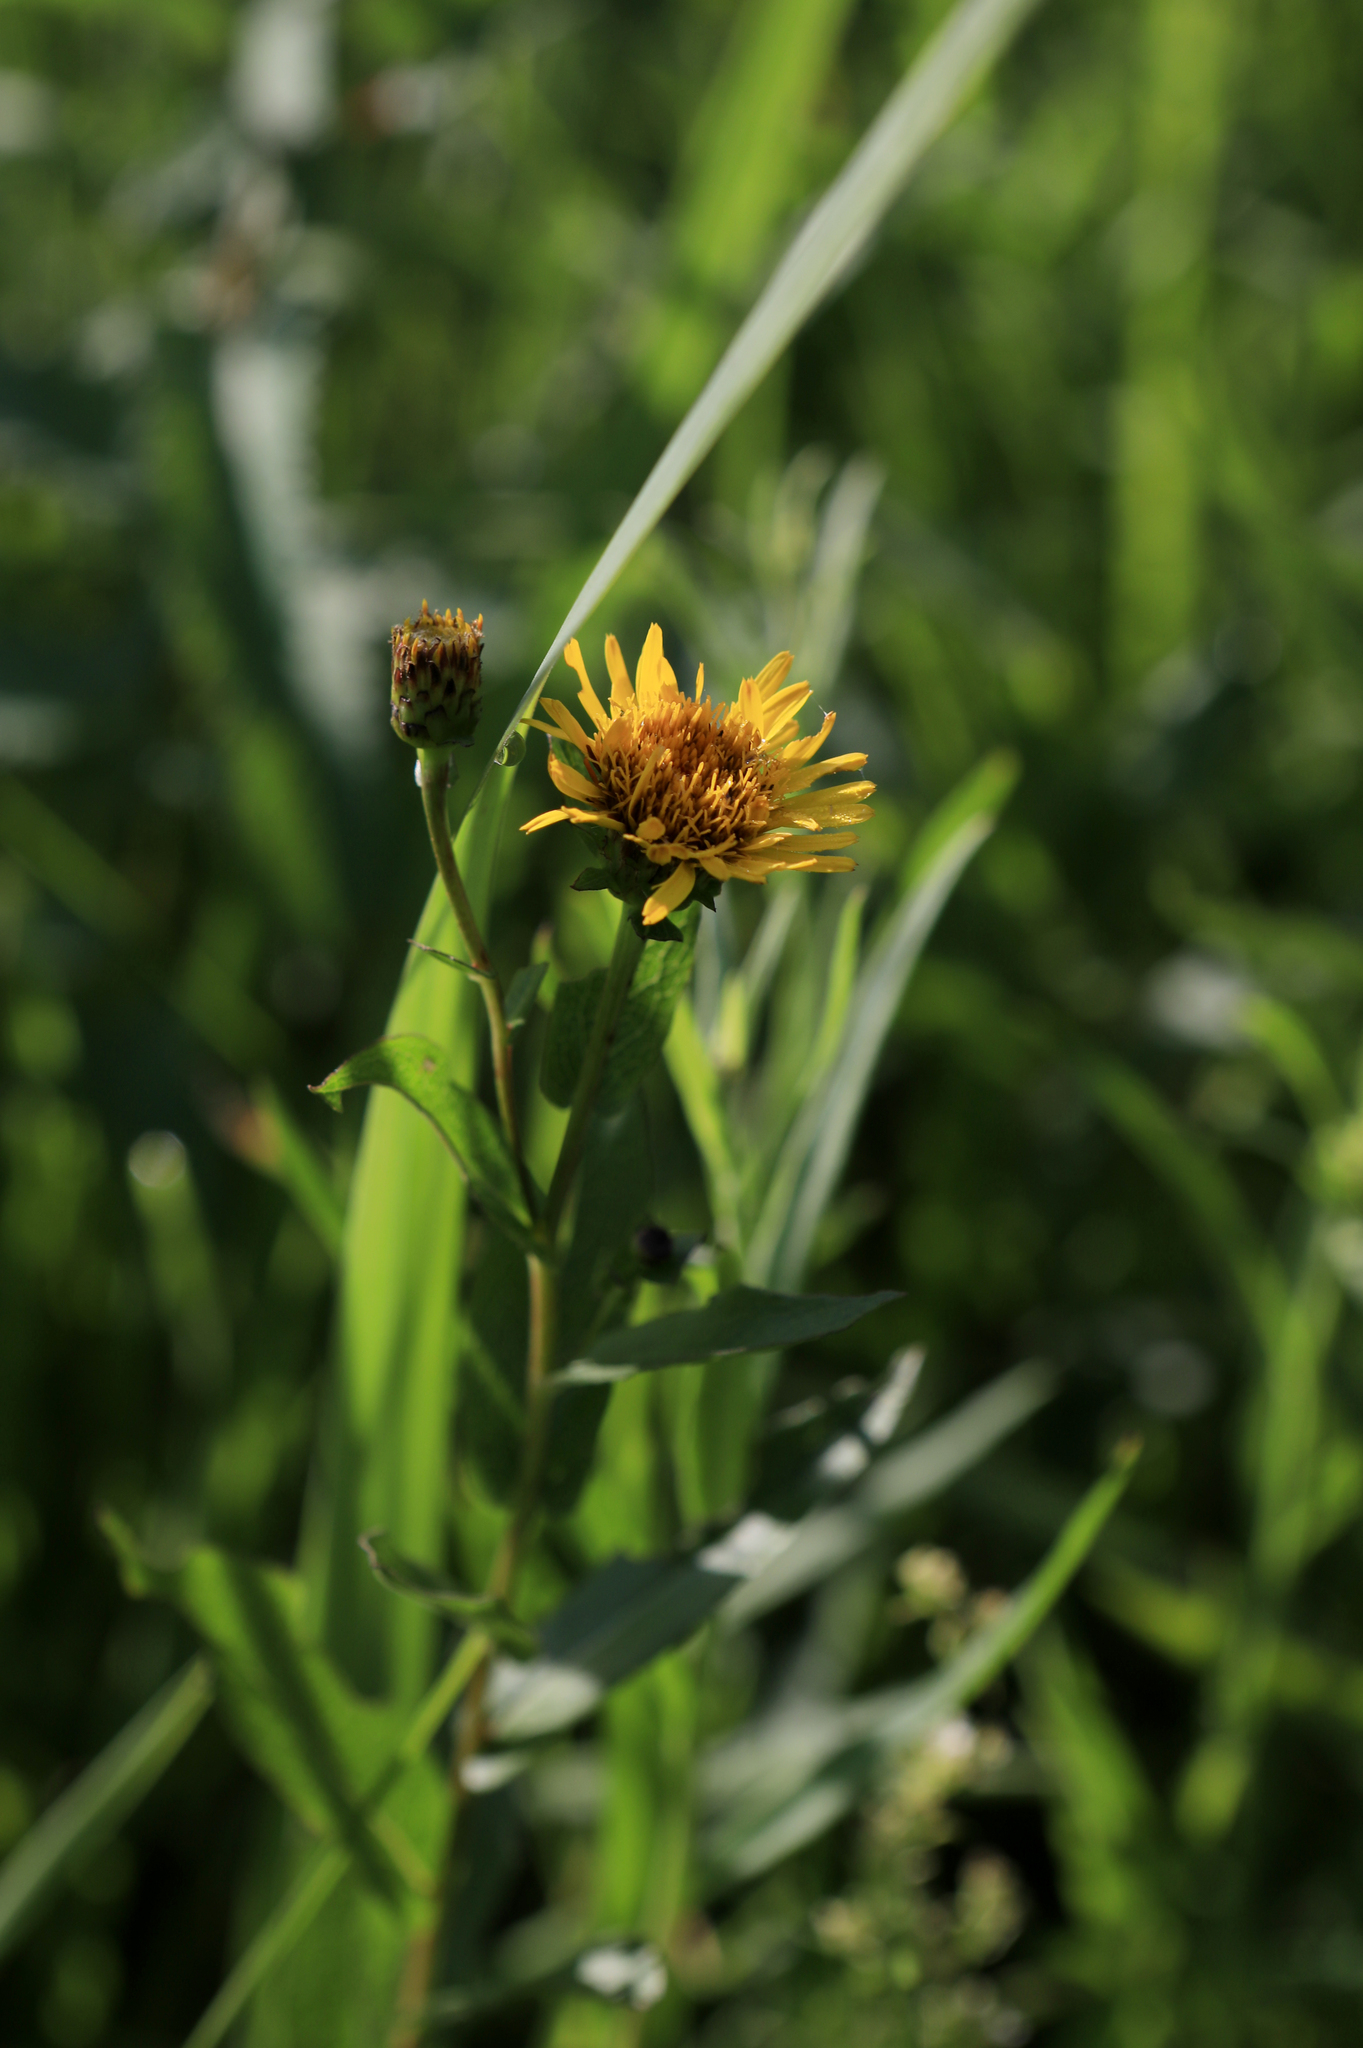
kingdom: Plantae
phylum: Tracheophyta
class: Magnoliopsida
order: Asterales
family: Asteraceae
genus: Pentanema
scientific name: Pentanema salicinum
